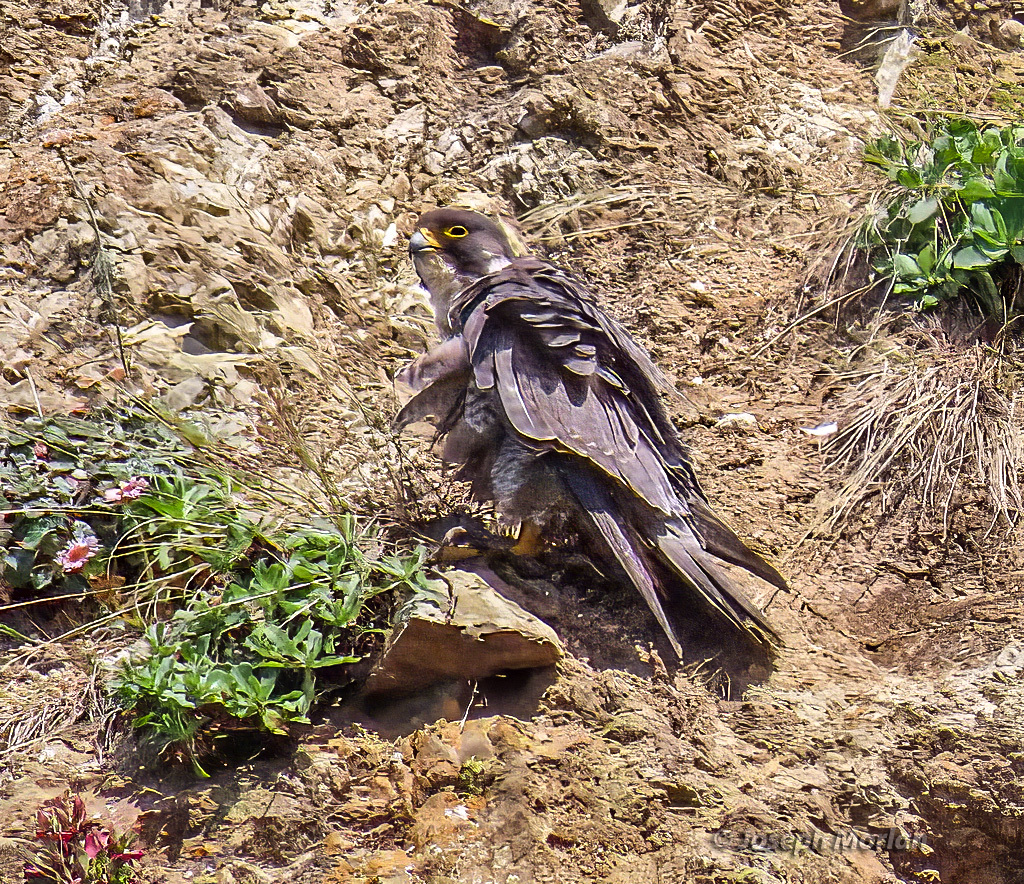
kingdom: Animalia
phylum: Chordata
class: Aves
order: Falconiformes
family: Falconidae
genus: Falco
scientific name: Falco peregrinus
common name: Peregrine falcon
